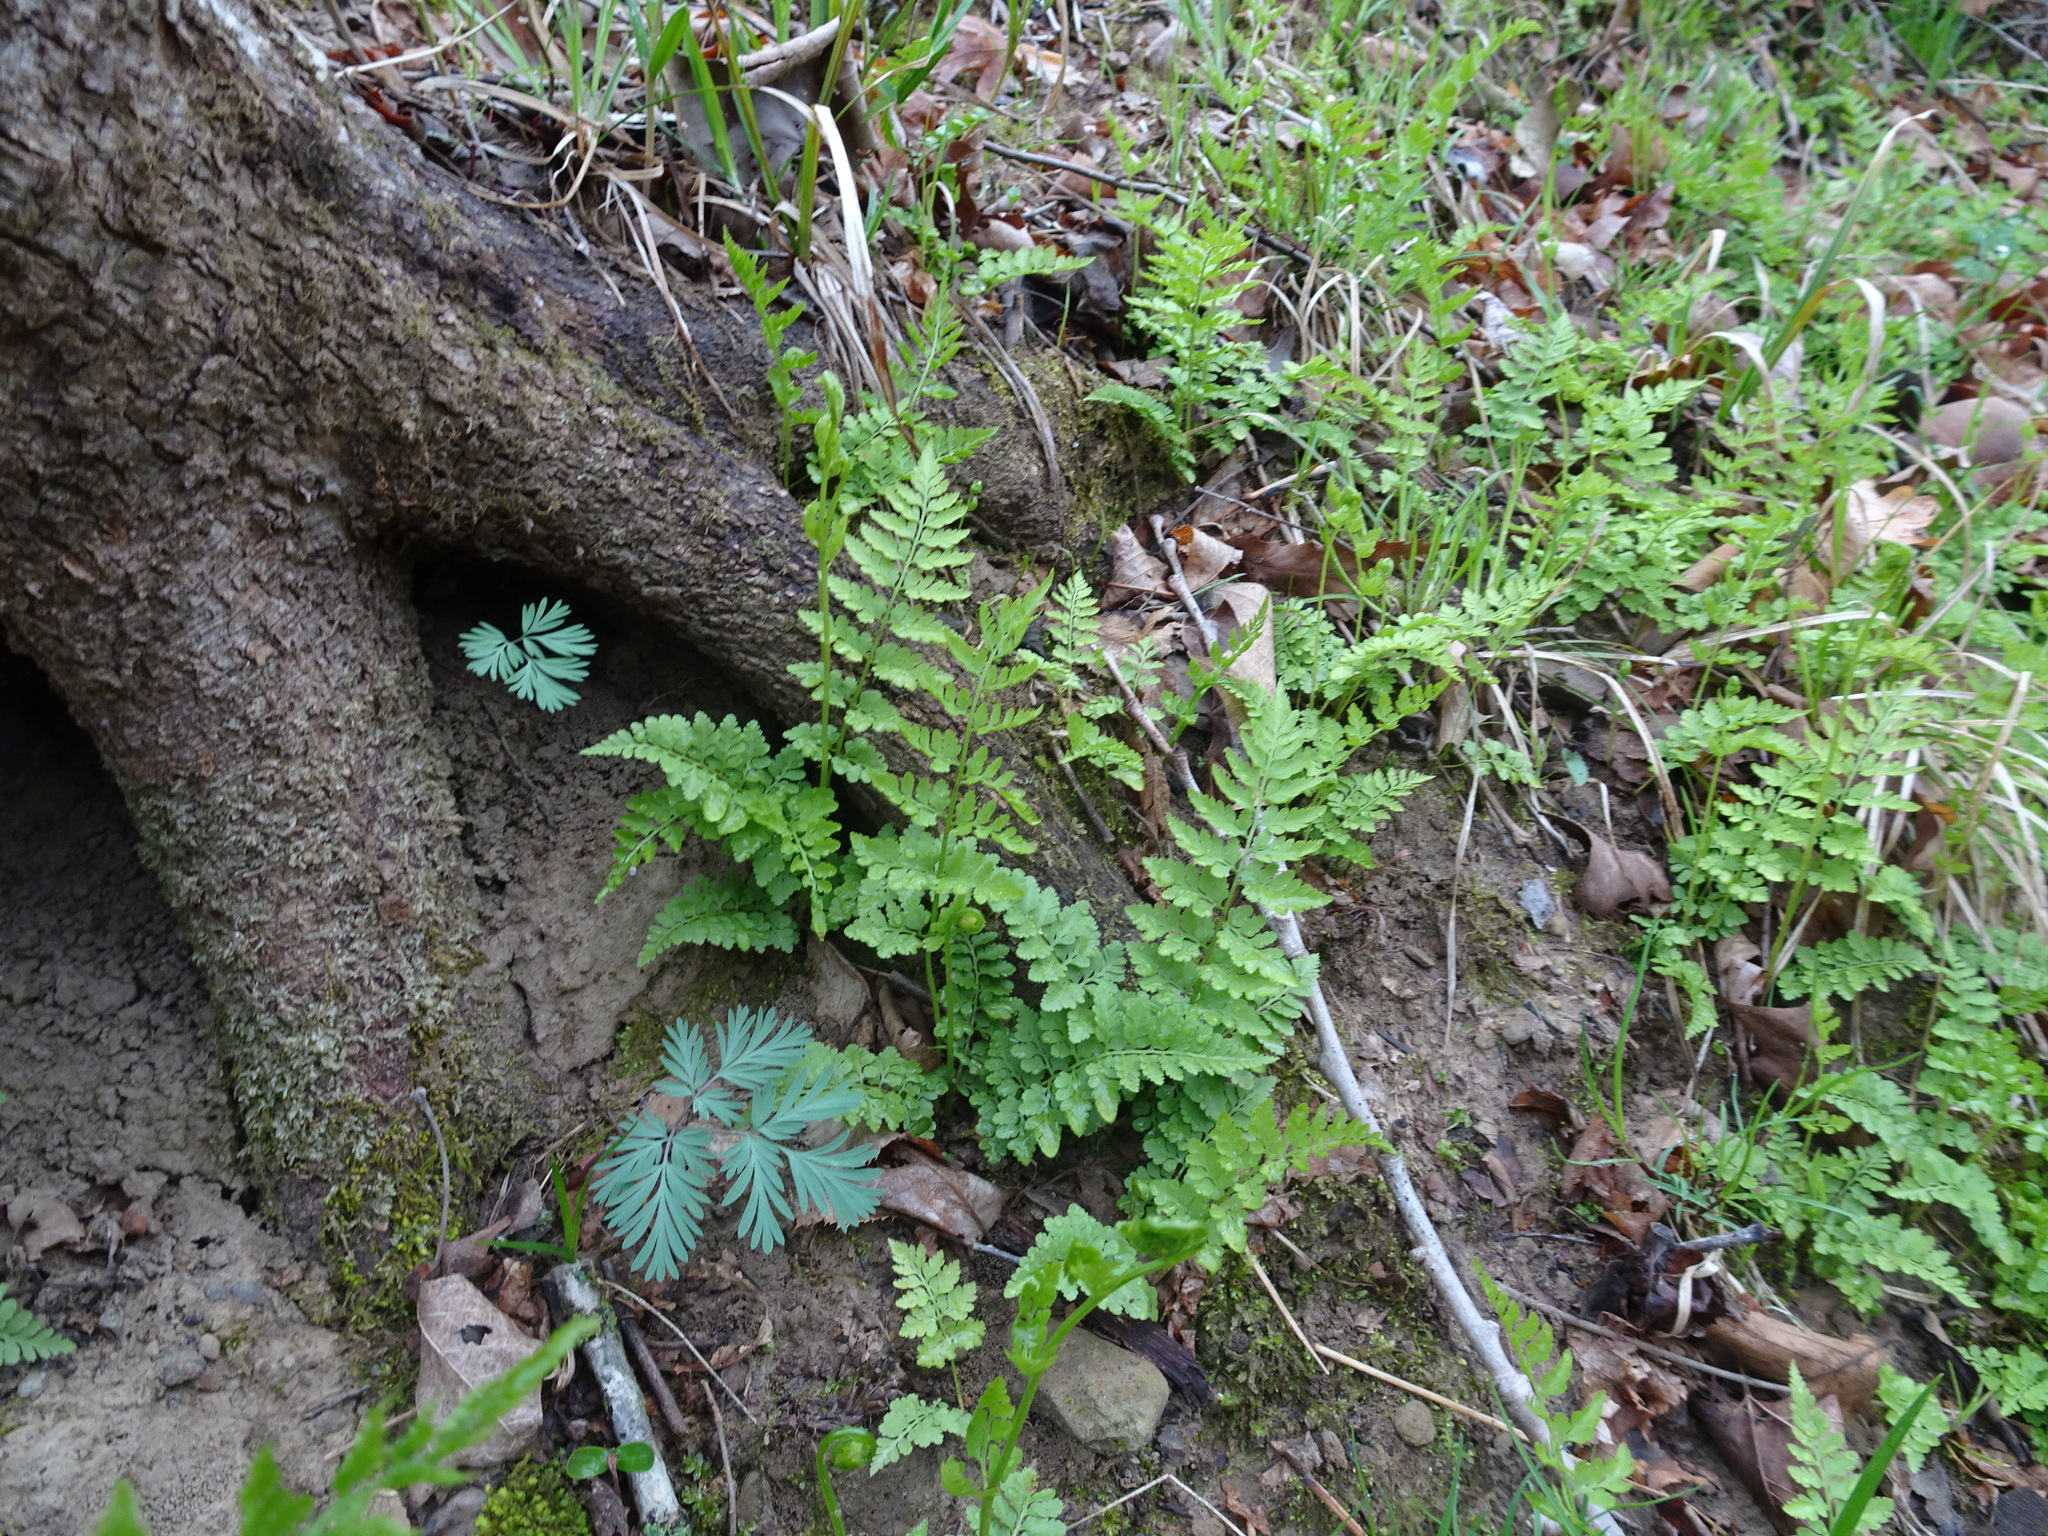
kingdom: Plantae
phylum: Tracheophyta
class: Polypodiopsida
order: Polypodiales
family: Cystopteridaceae
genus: Cystopteris
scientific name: Cystopteris protrusa
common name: Lowland brittle fern
